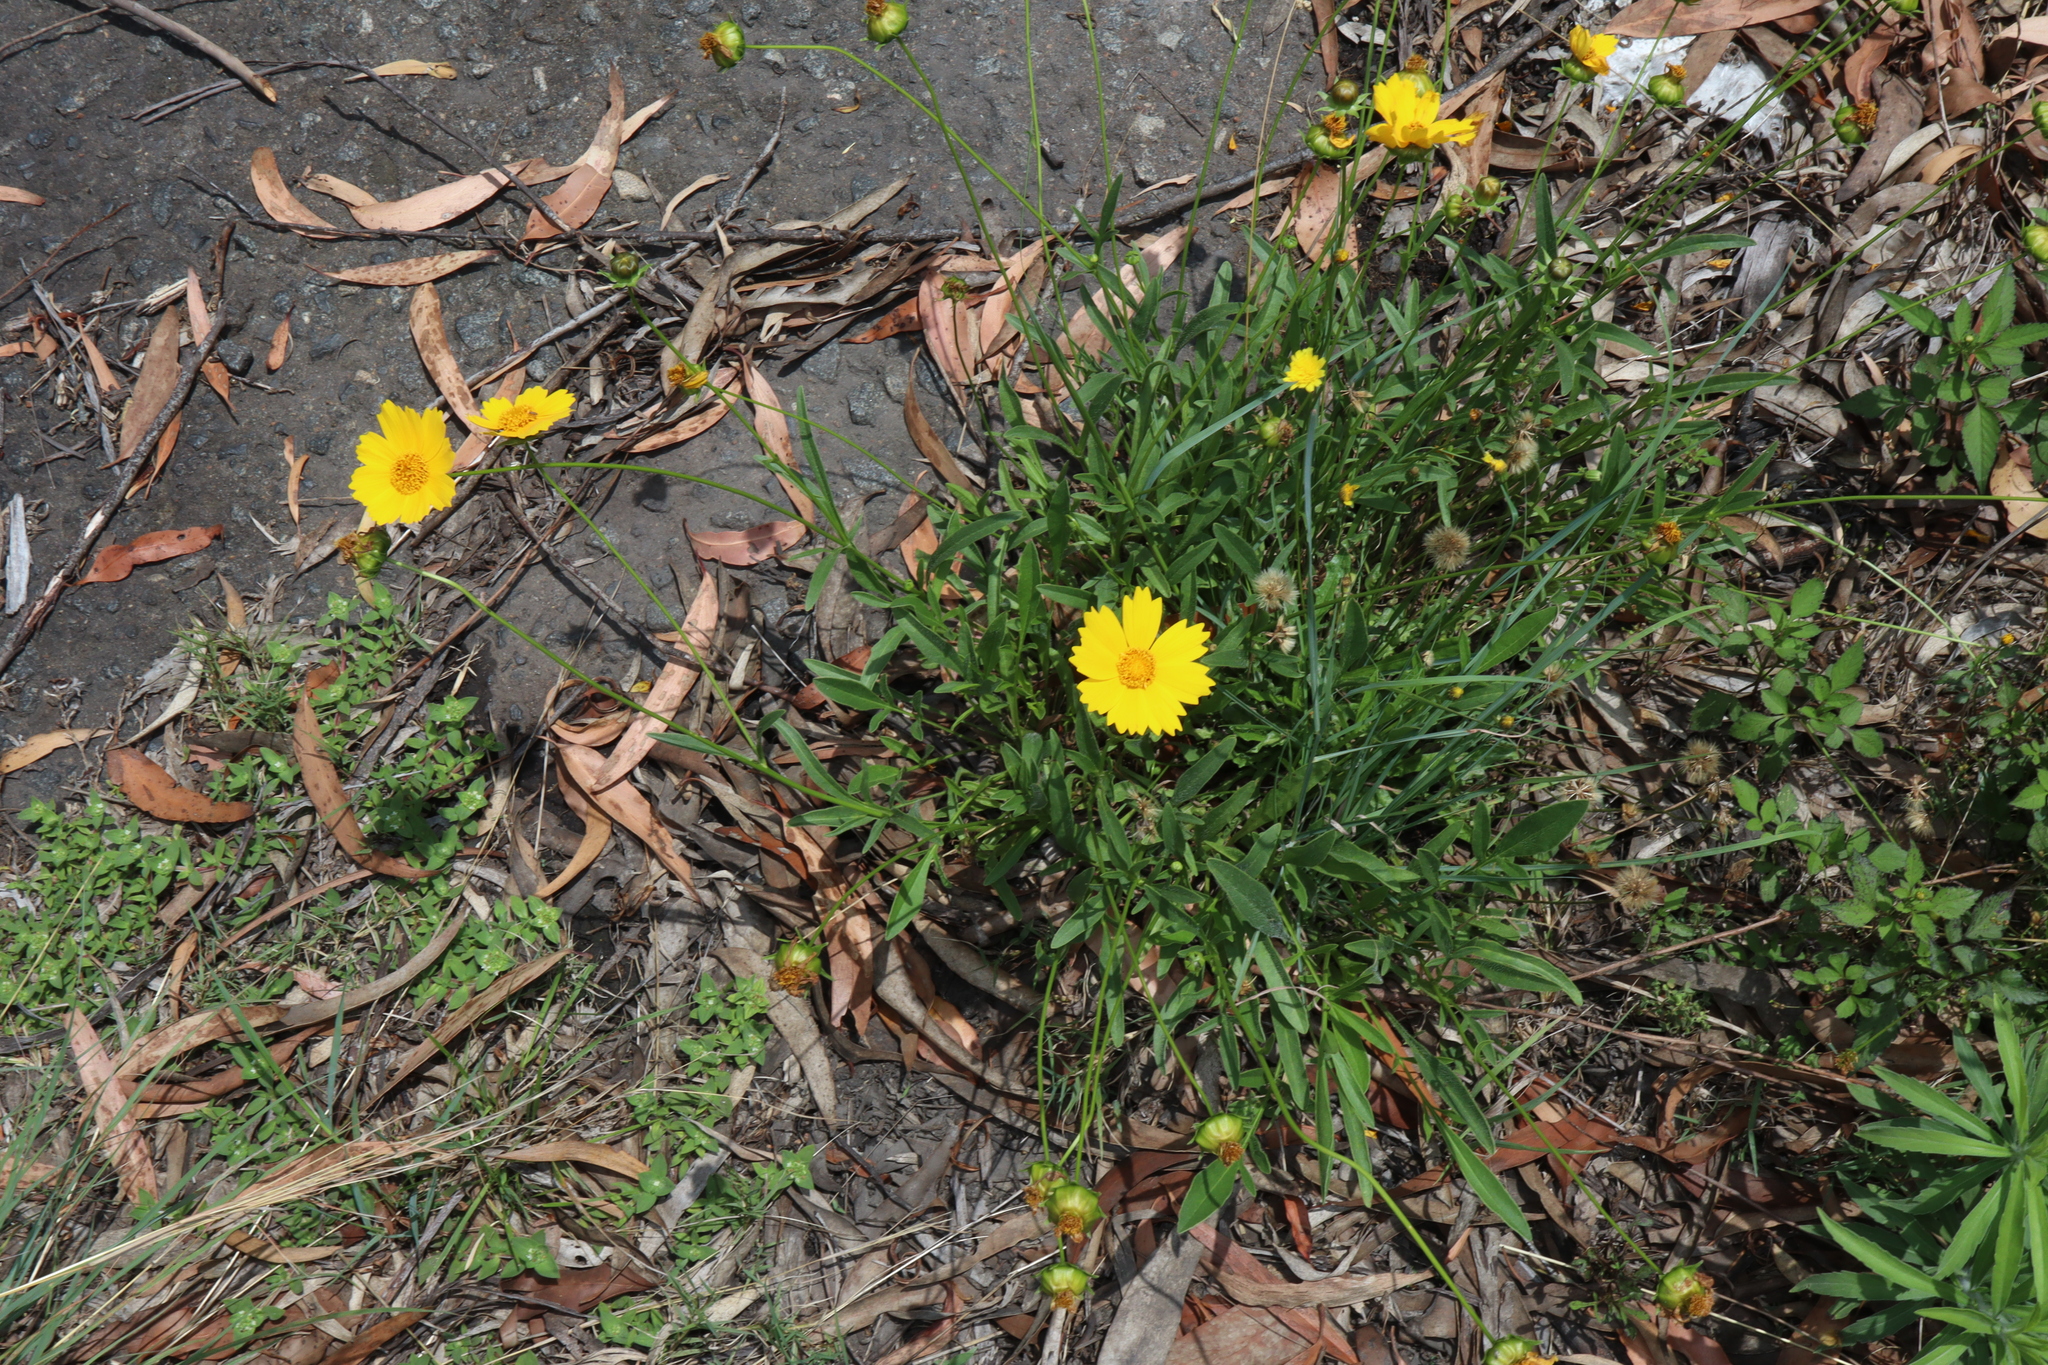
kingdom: Plantae
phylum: Tracheophyta
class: Magnoliopsida
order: Asterales
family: Asteraceae
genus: Coreopsis
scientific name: Coreopsis lanceolata
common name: Garden coreopsis
